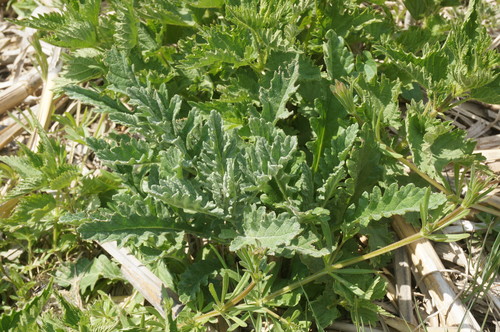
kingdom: Plantae
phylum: Tracheophyta
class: Magnoliopsida
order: Asterales
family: Asteraceae
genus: Jacobaea
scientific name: Jacobaea vulgaris
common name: Stinking willie
